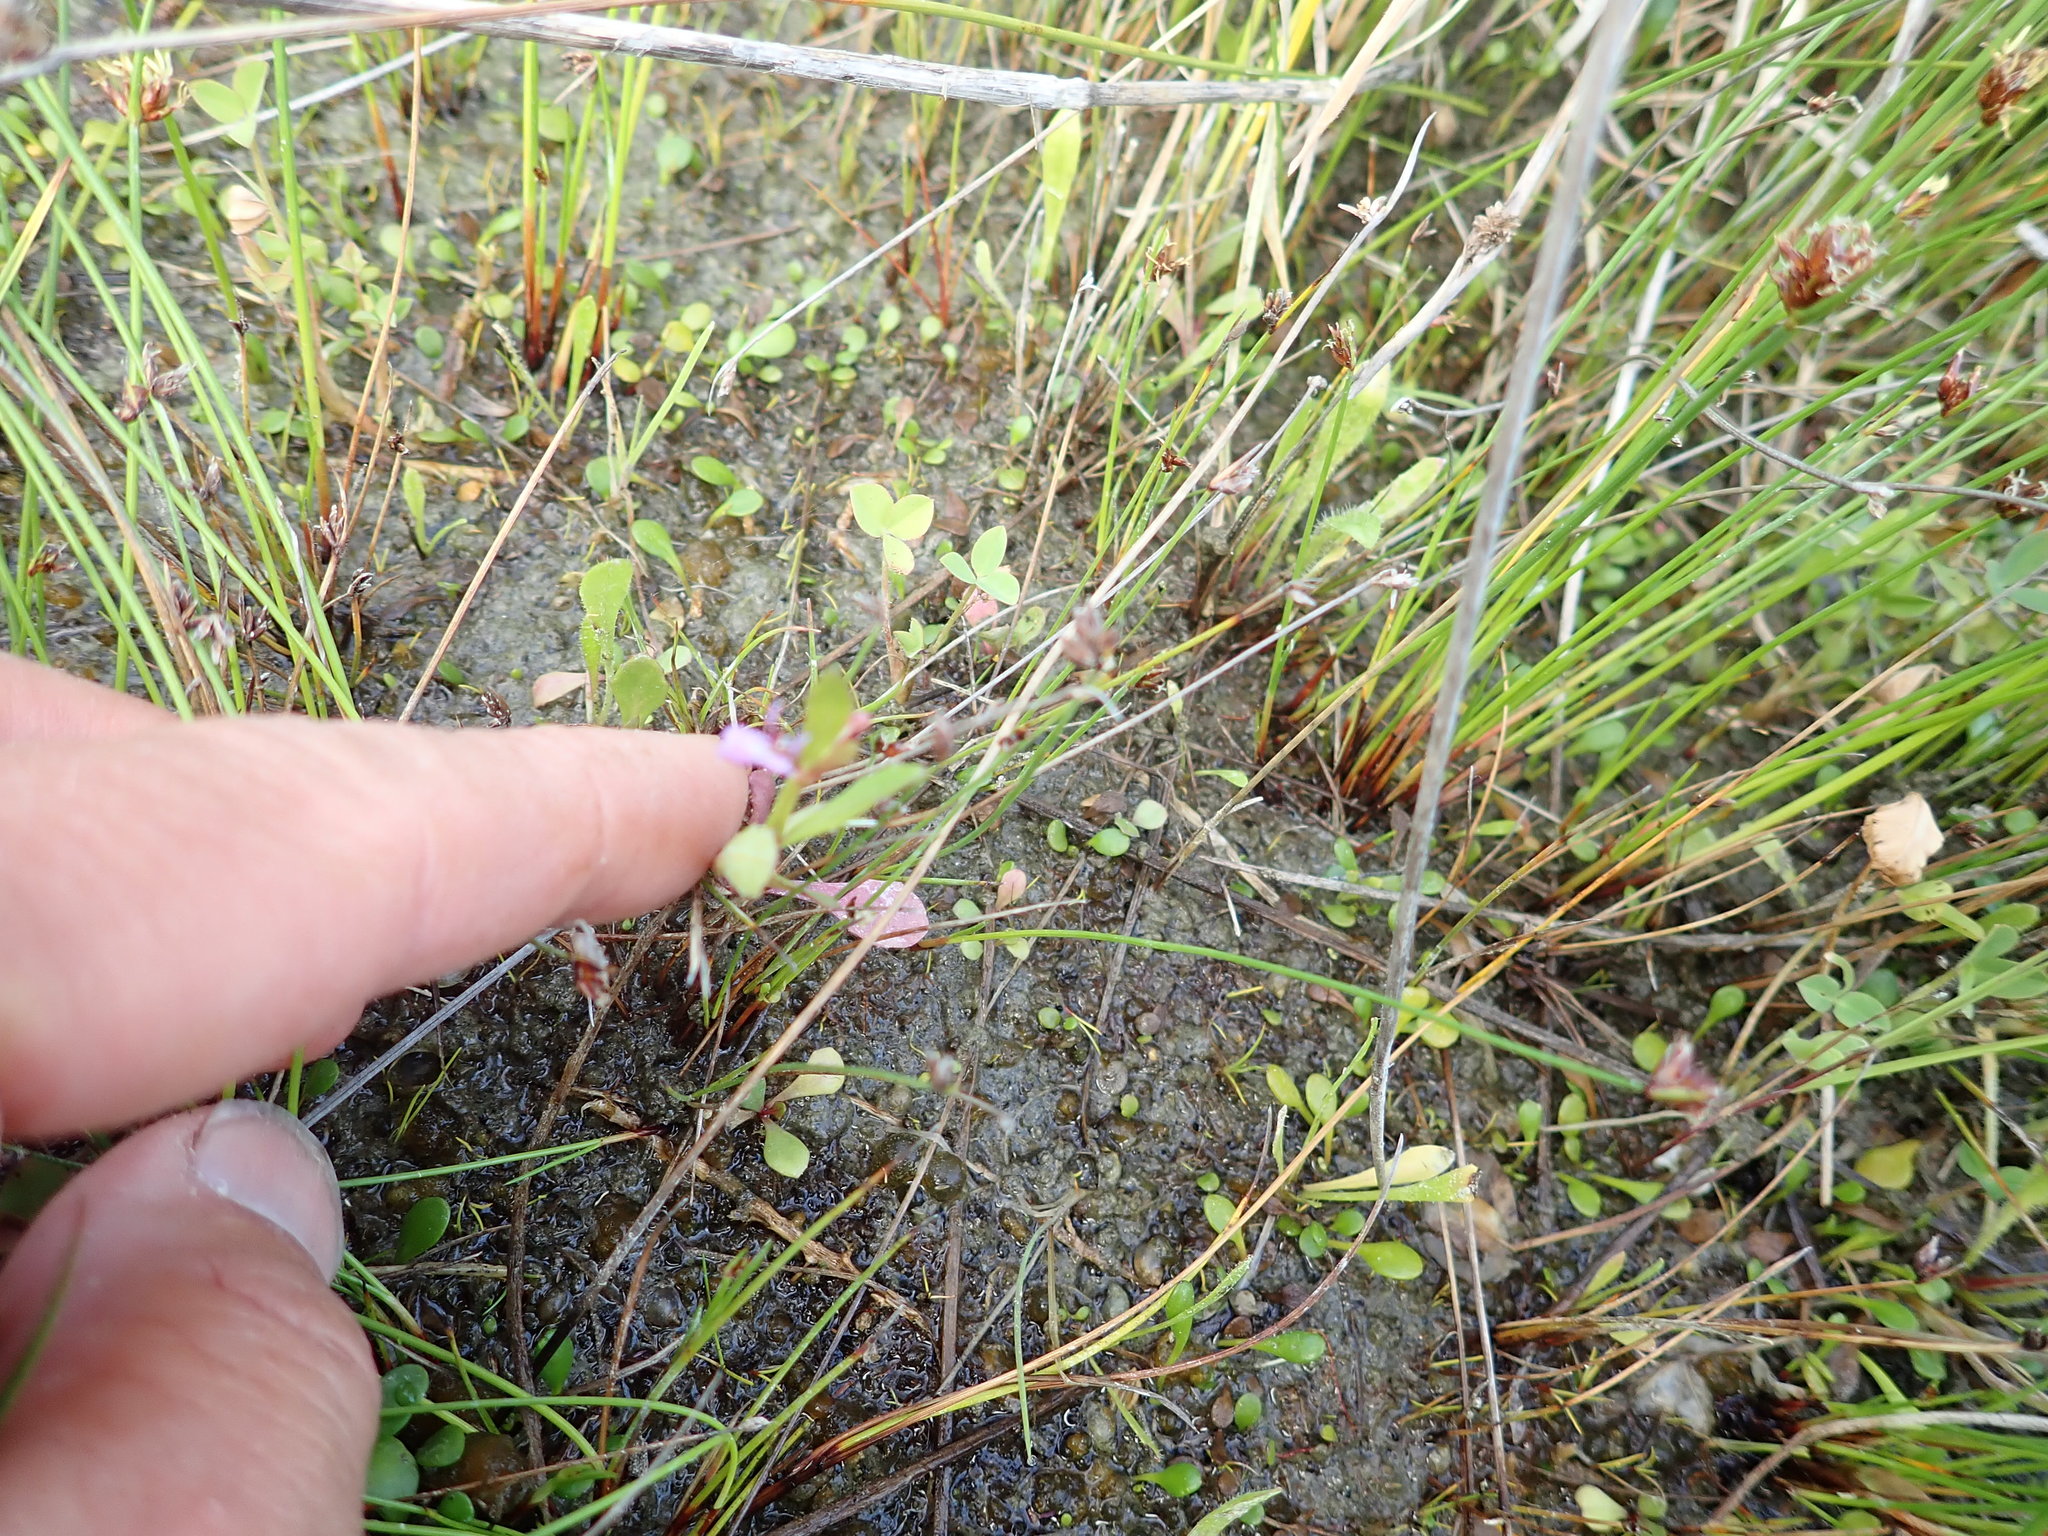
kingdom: Plantae
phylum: Tracheophyta
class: Magnoliopsida
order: Asterales
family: Campanulaceae
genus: Lobelia
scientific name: Lobelia anceps
